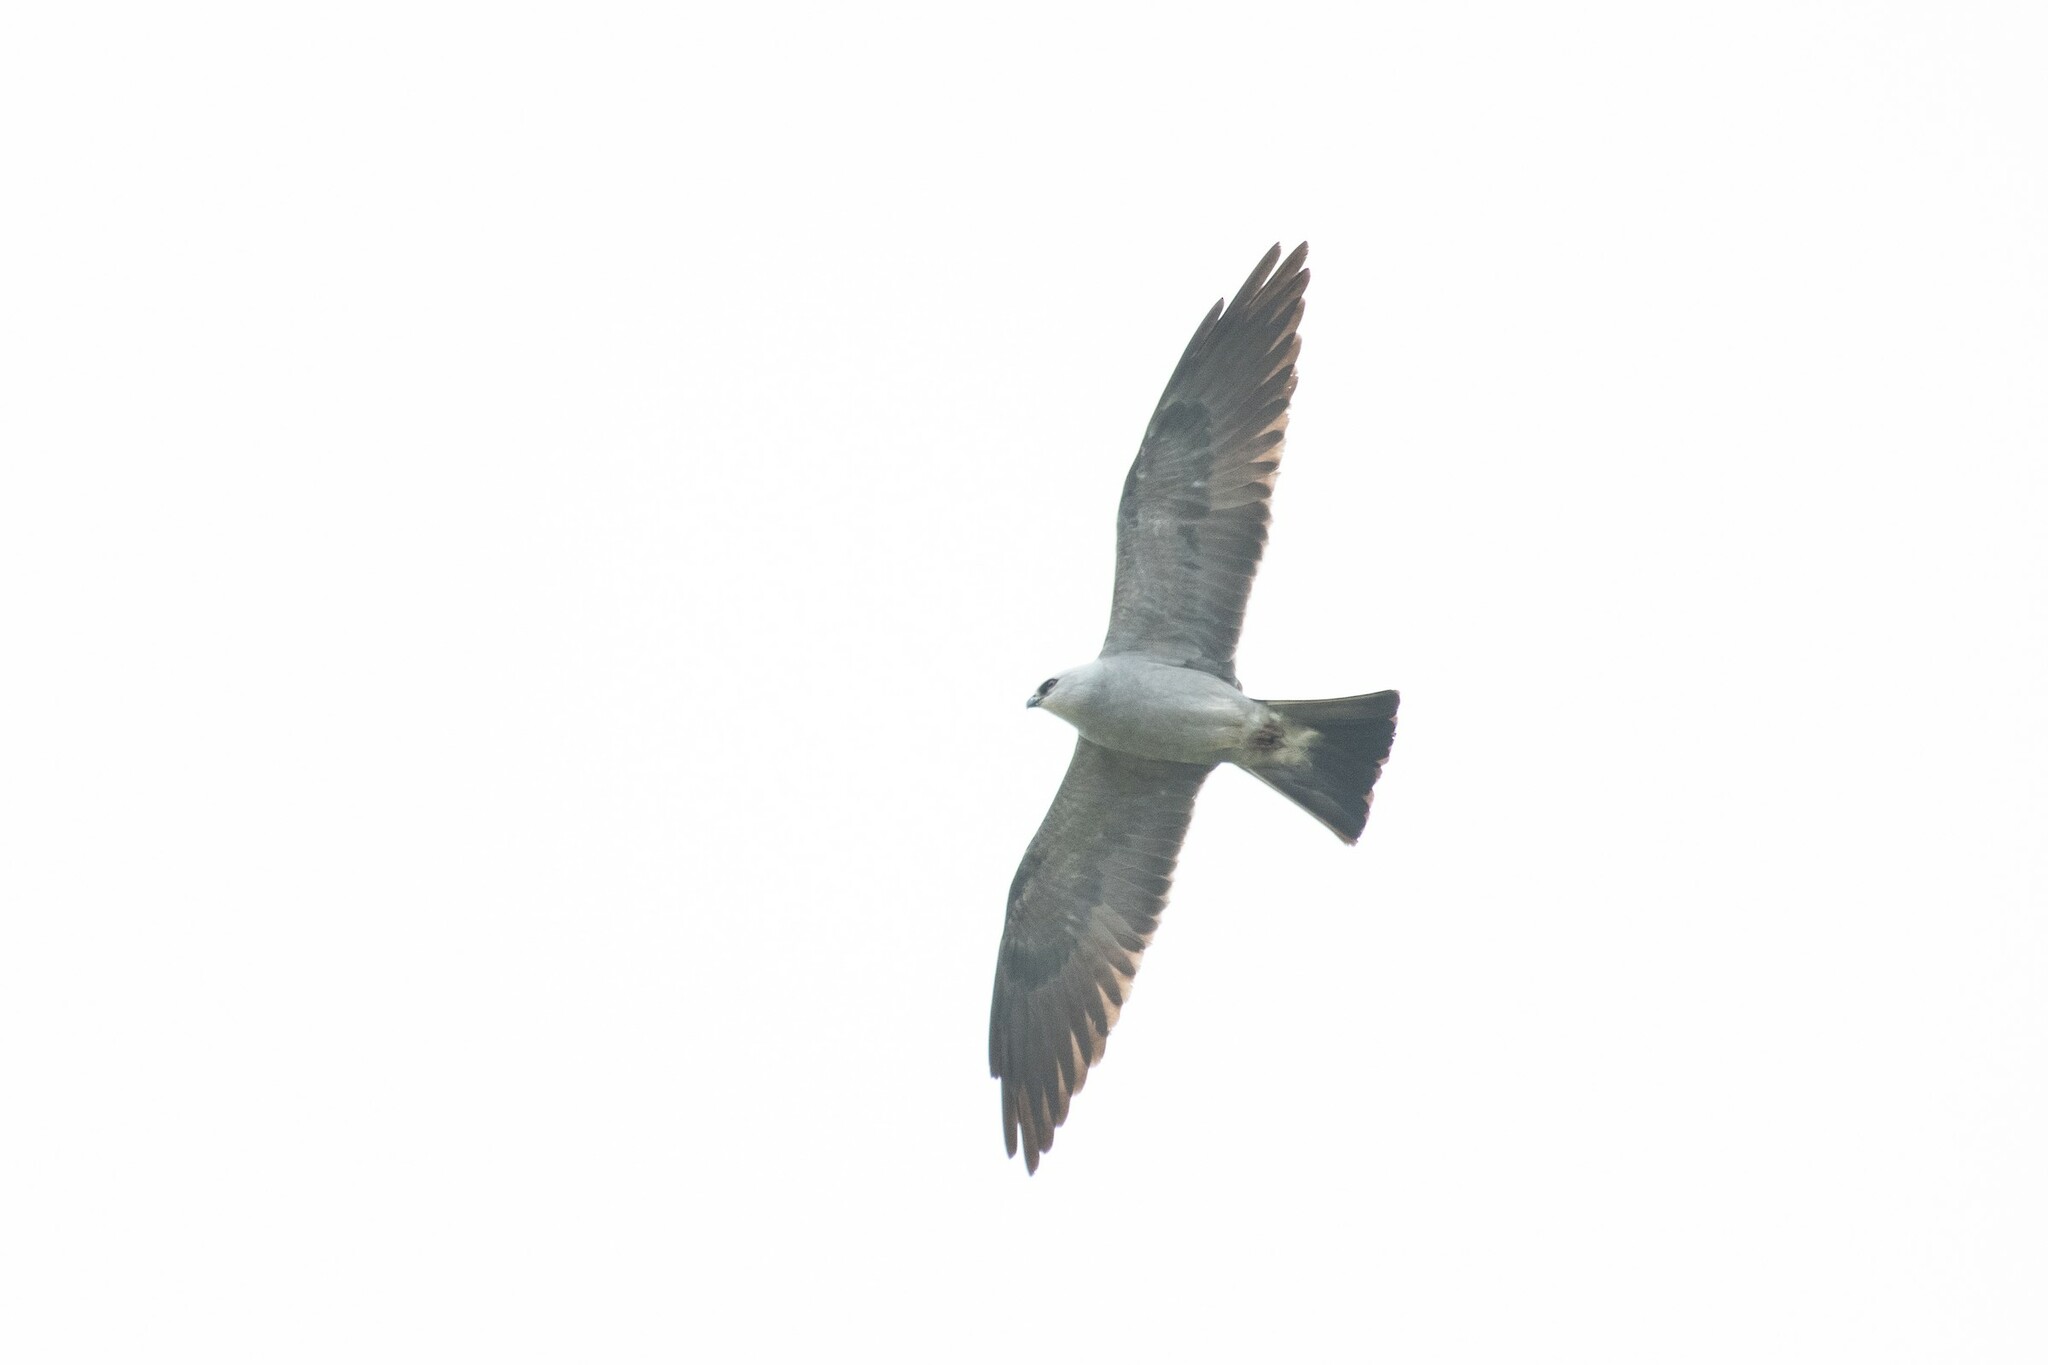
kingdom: Animalia
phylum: Chordata
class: Aves
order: Accipitriformes
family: Accipitridae
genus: Ictinia
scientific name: Ictinia mississippiensis
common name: Mississippi kite
